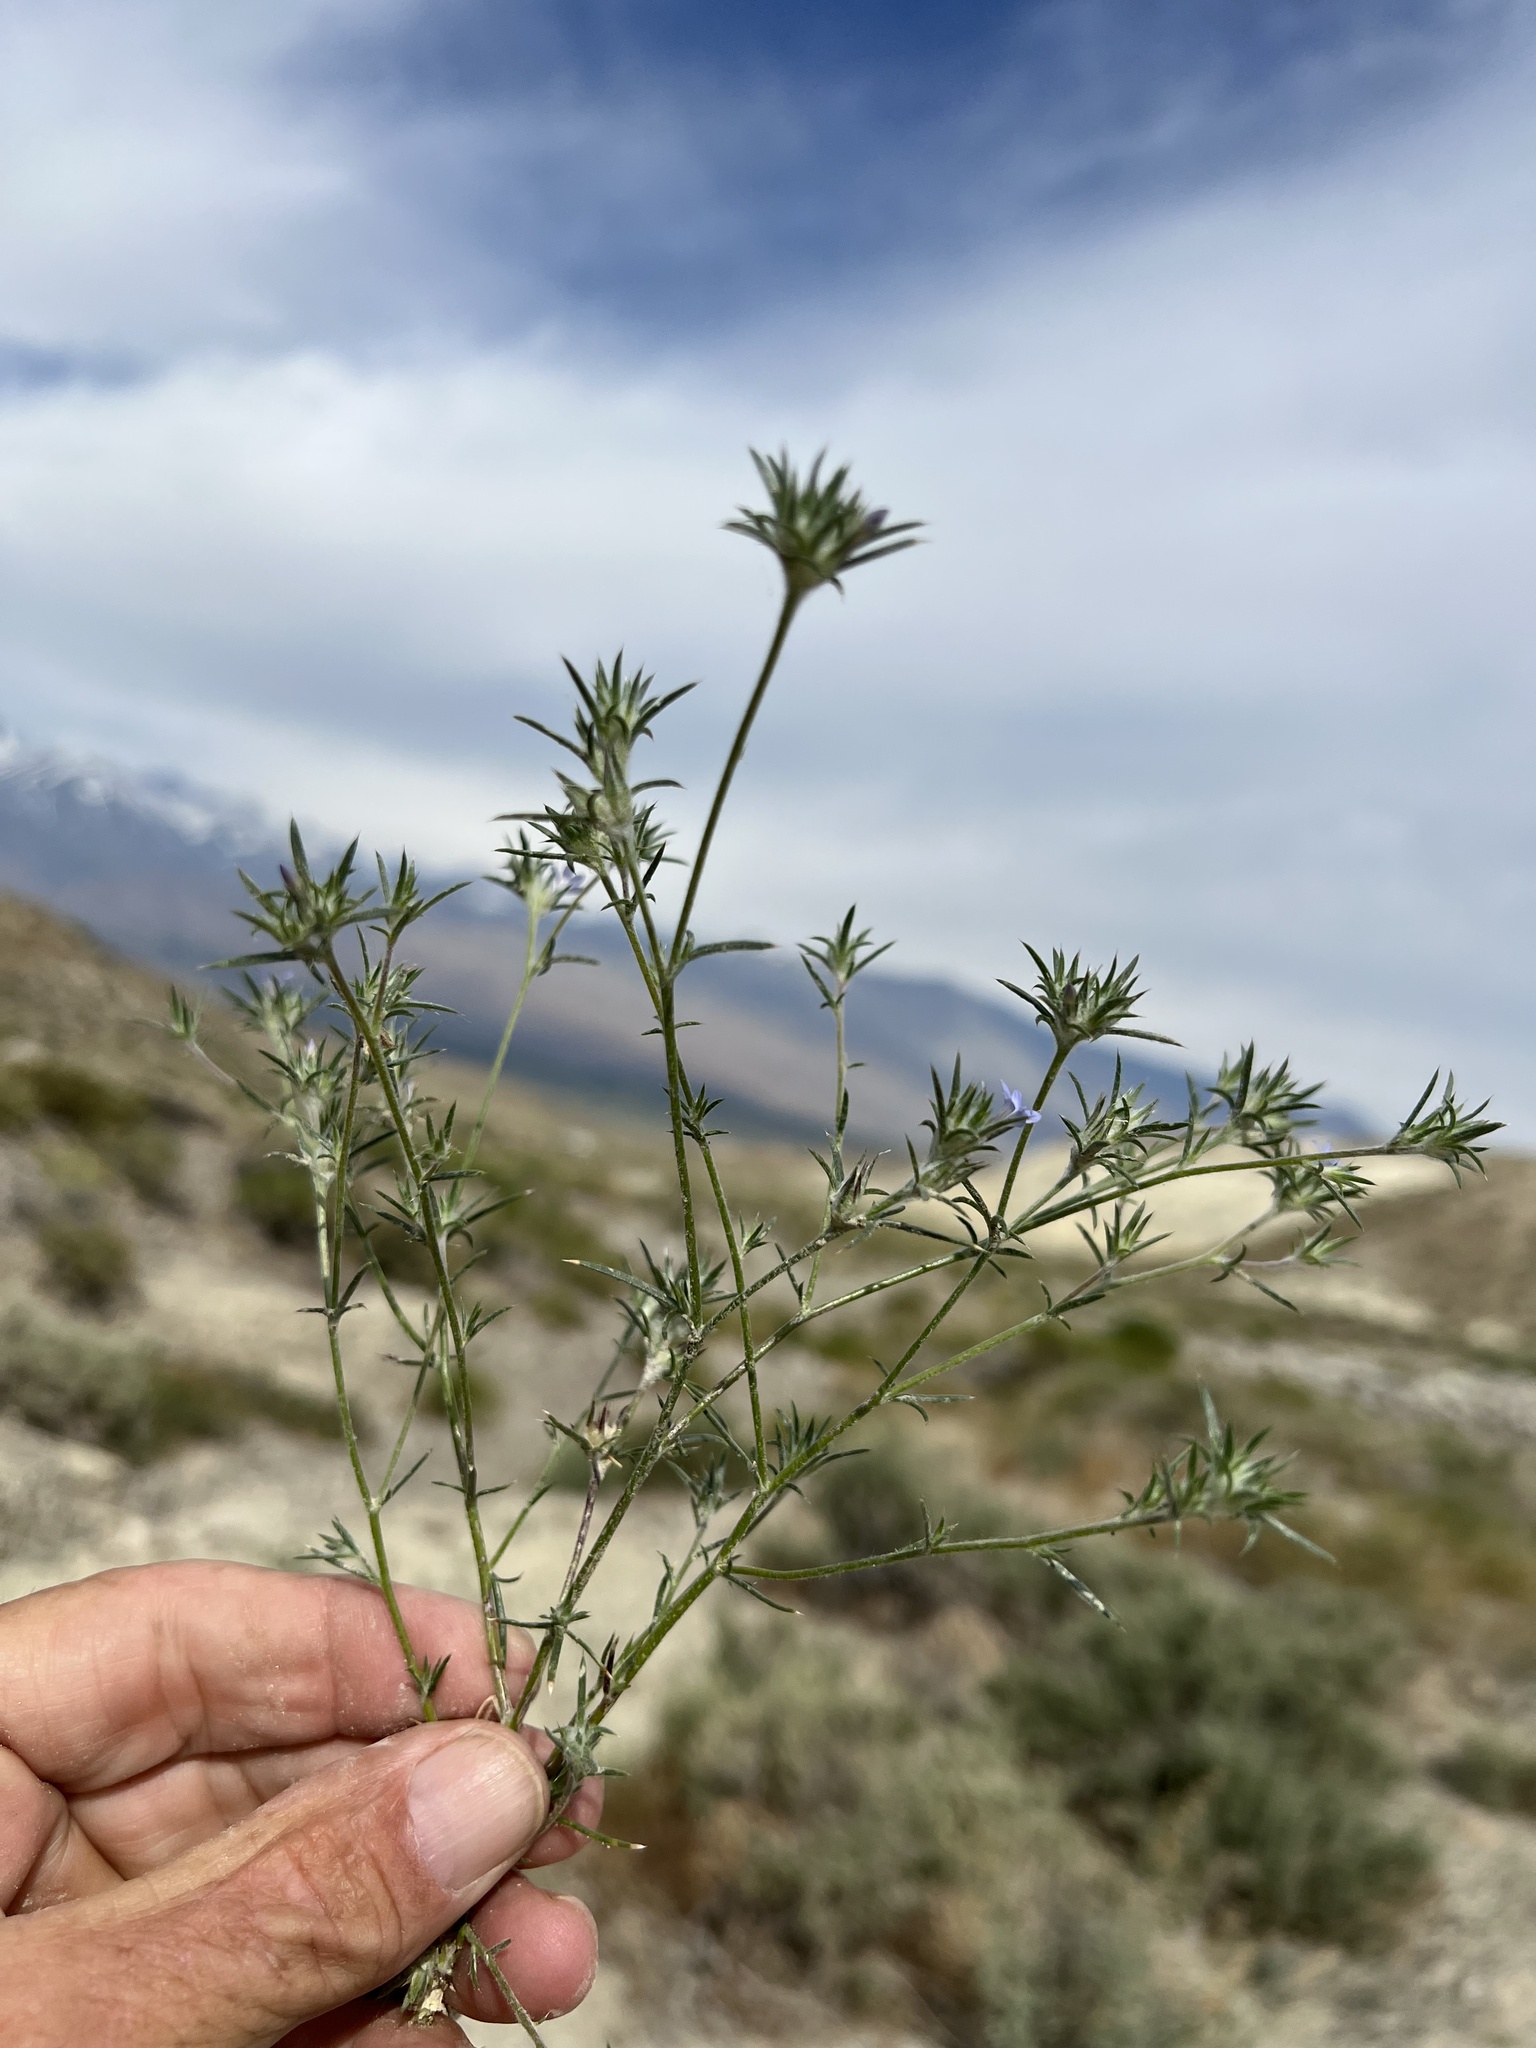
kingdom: Plantae
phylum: Tracheophyta
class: Magnoliopsida
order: Ericales
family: Polemoniaceae
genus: Eriastrum
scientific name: Eriastrum wilcoxii
